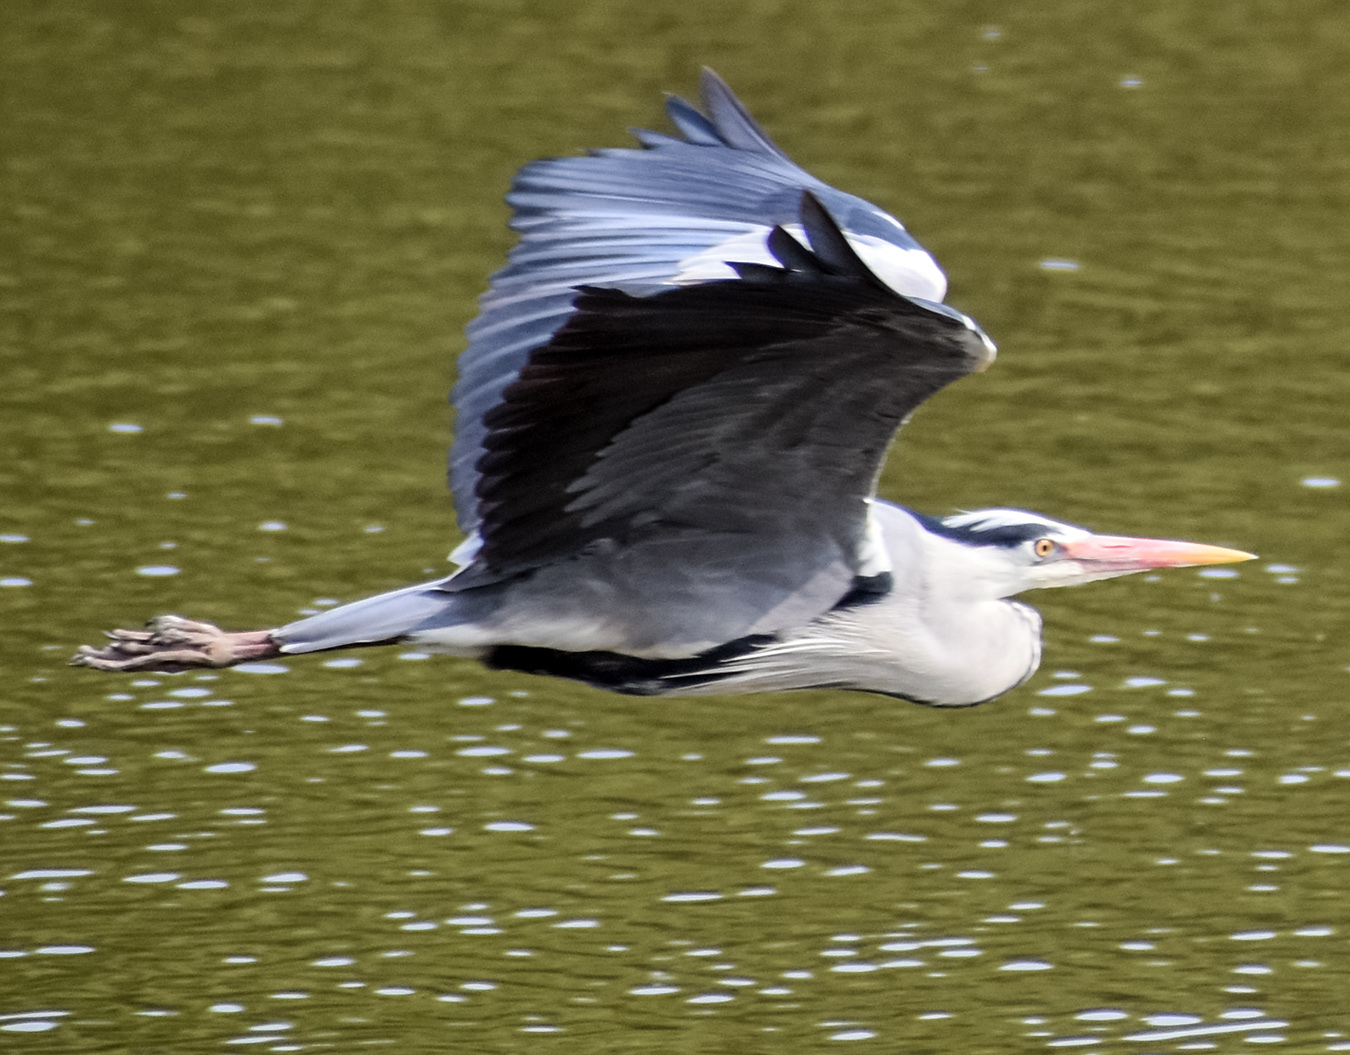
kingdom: Animalia
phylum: Chordata
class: Aves
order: Pelecaniformes
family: Ardeidae
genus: Ardea
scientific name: Ardea cinerea
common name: Grey heron
